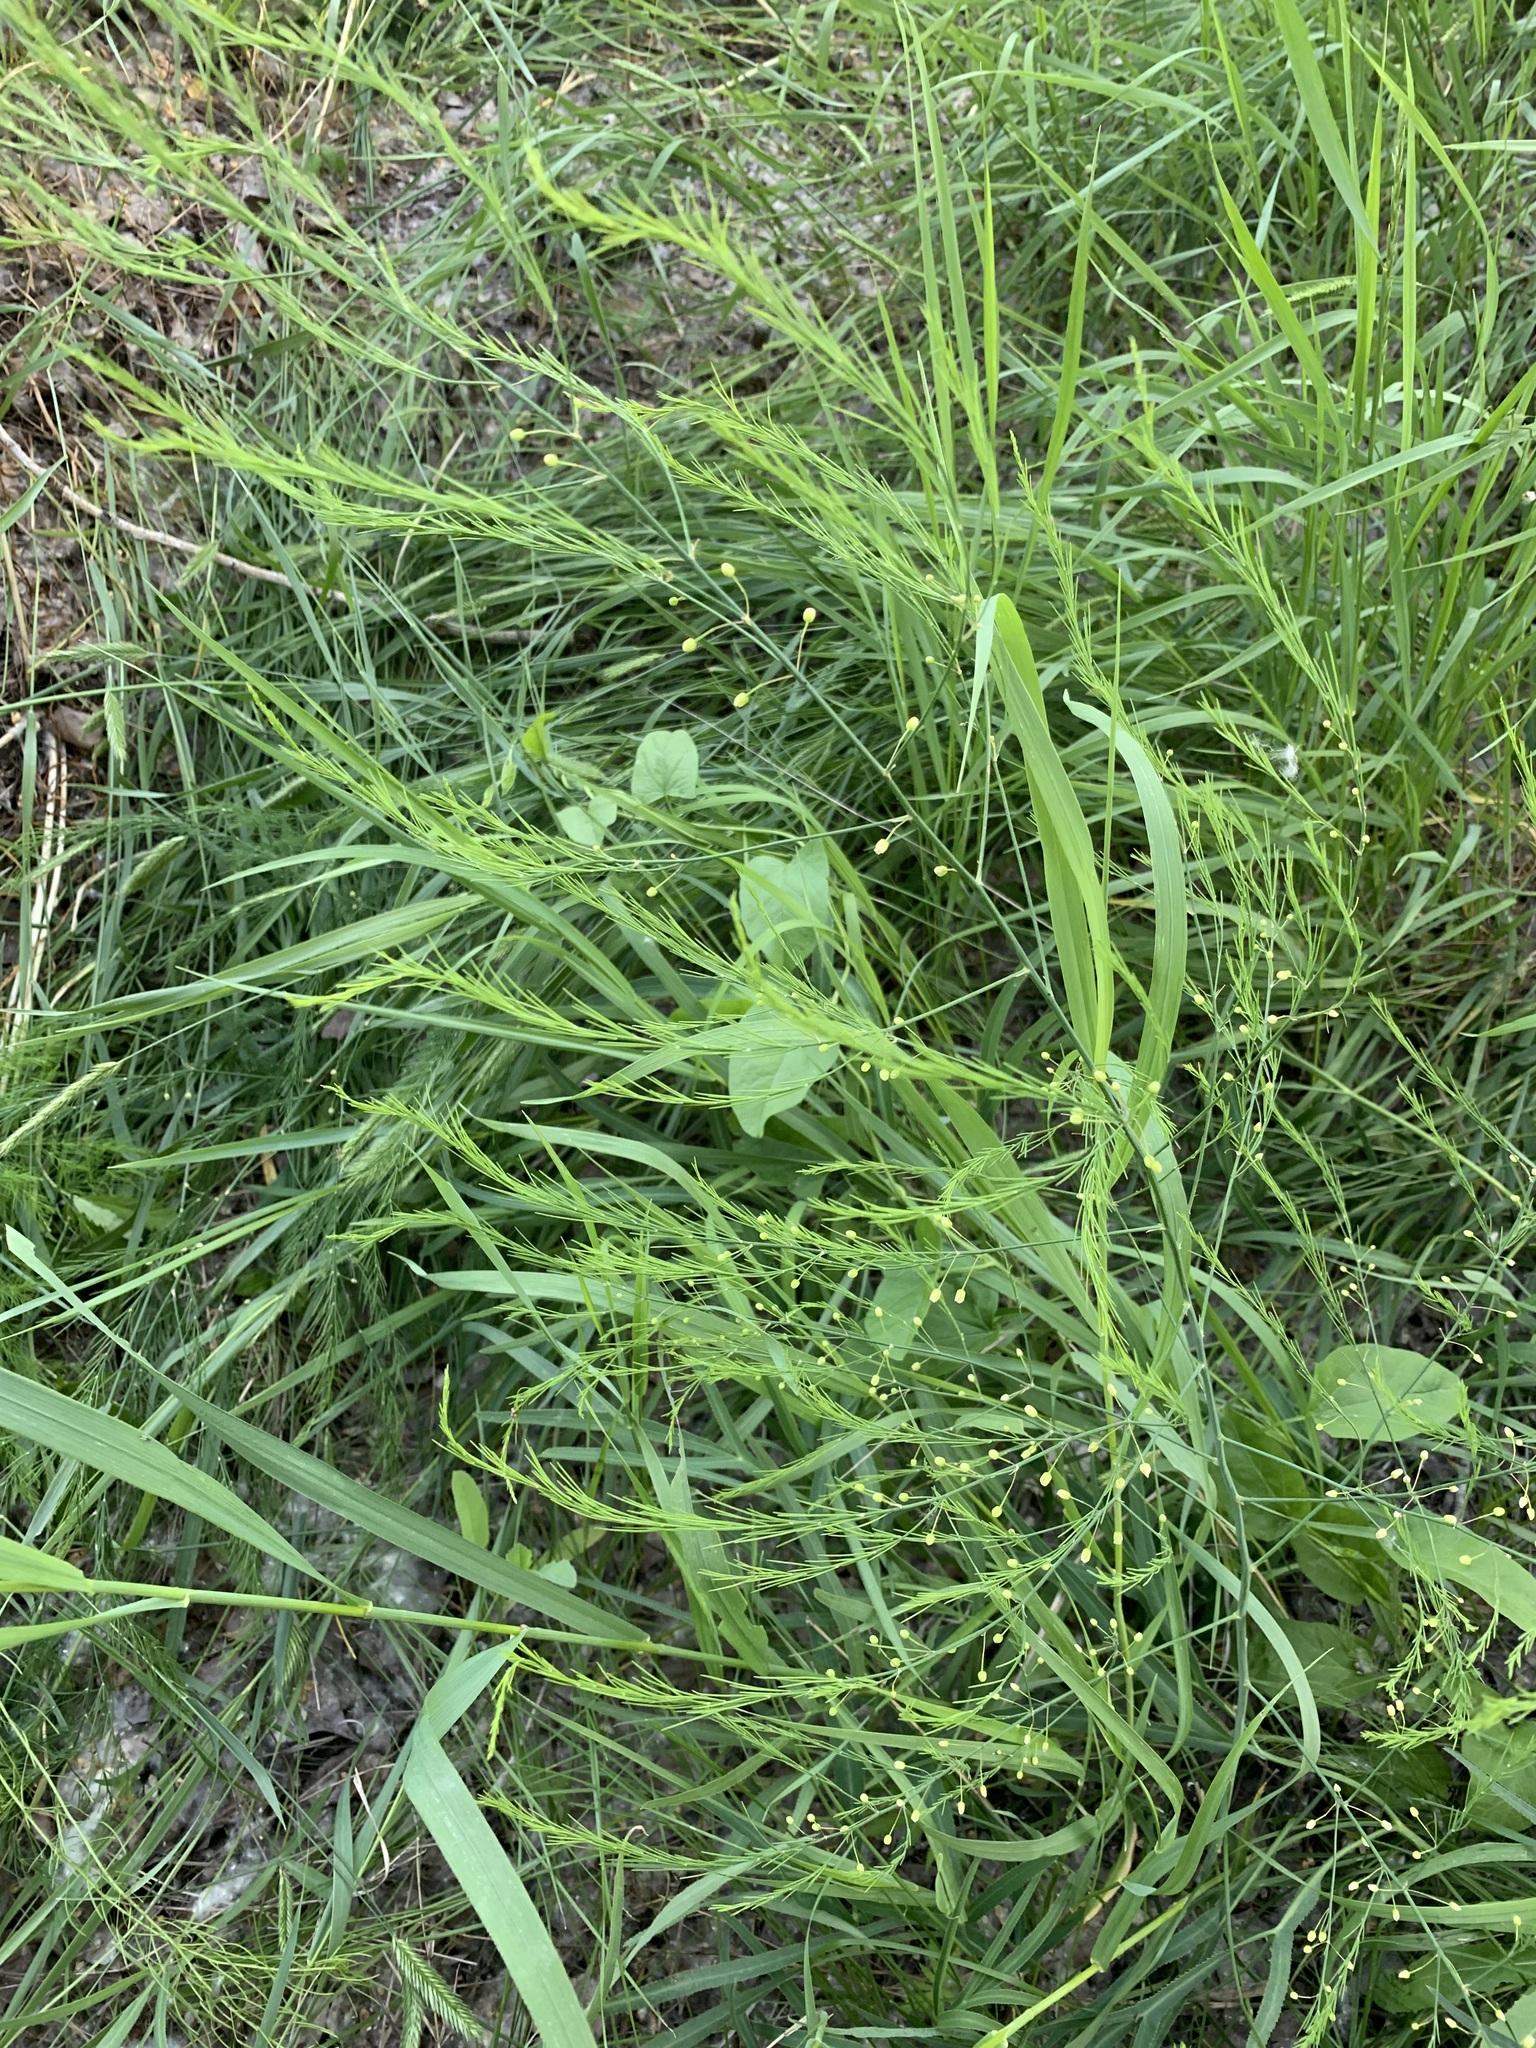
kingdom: Plantae
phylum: Tracheophyta
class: Liliopsida
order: Asparagales
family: Asparagaceae
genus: Asparagus
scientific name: Asparagus officinalis
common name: Garden asparagus
